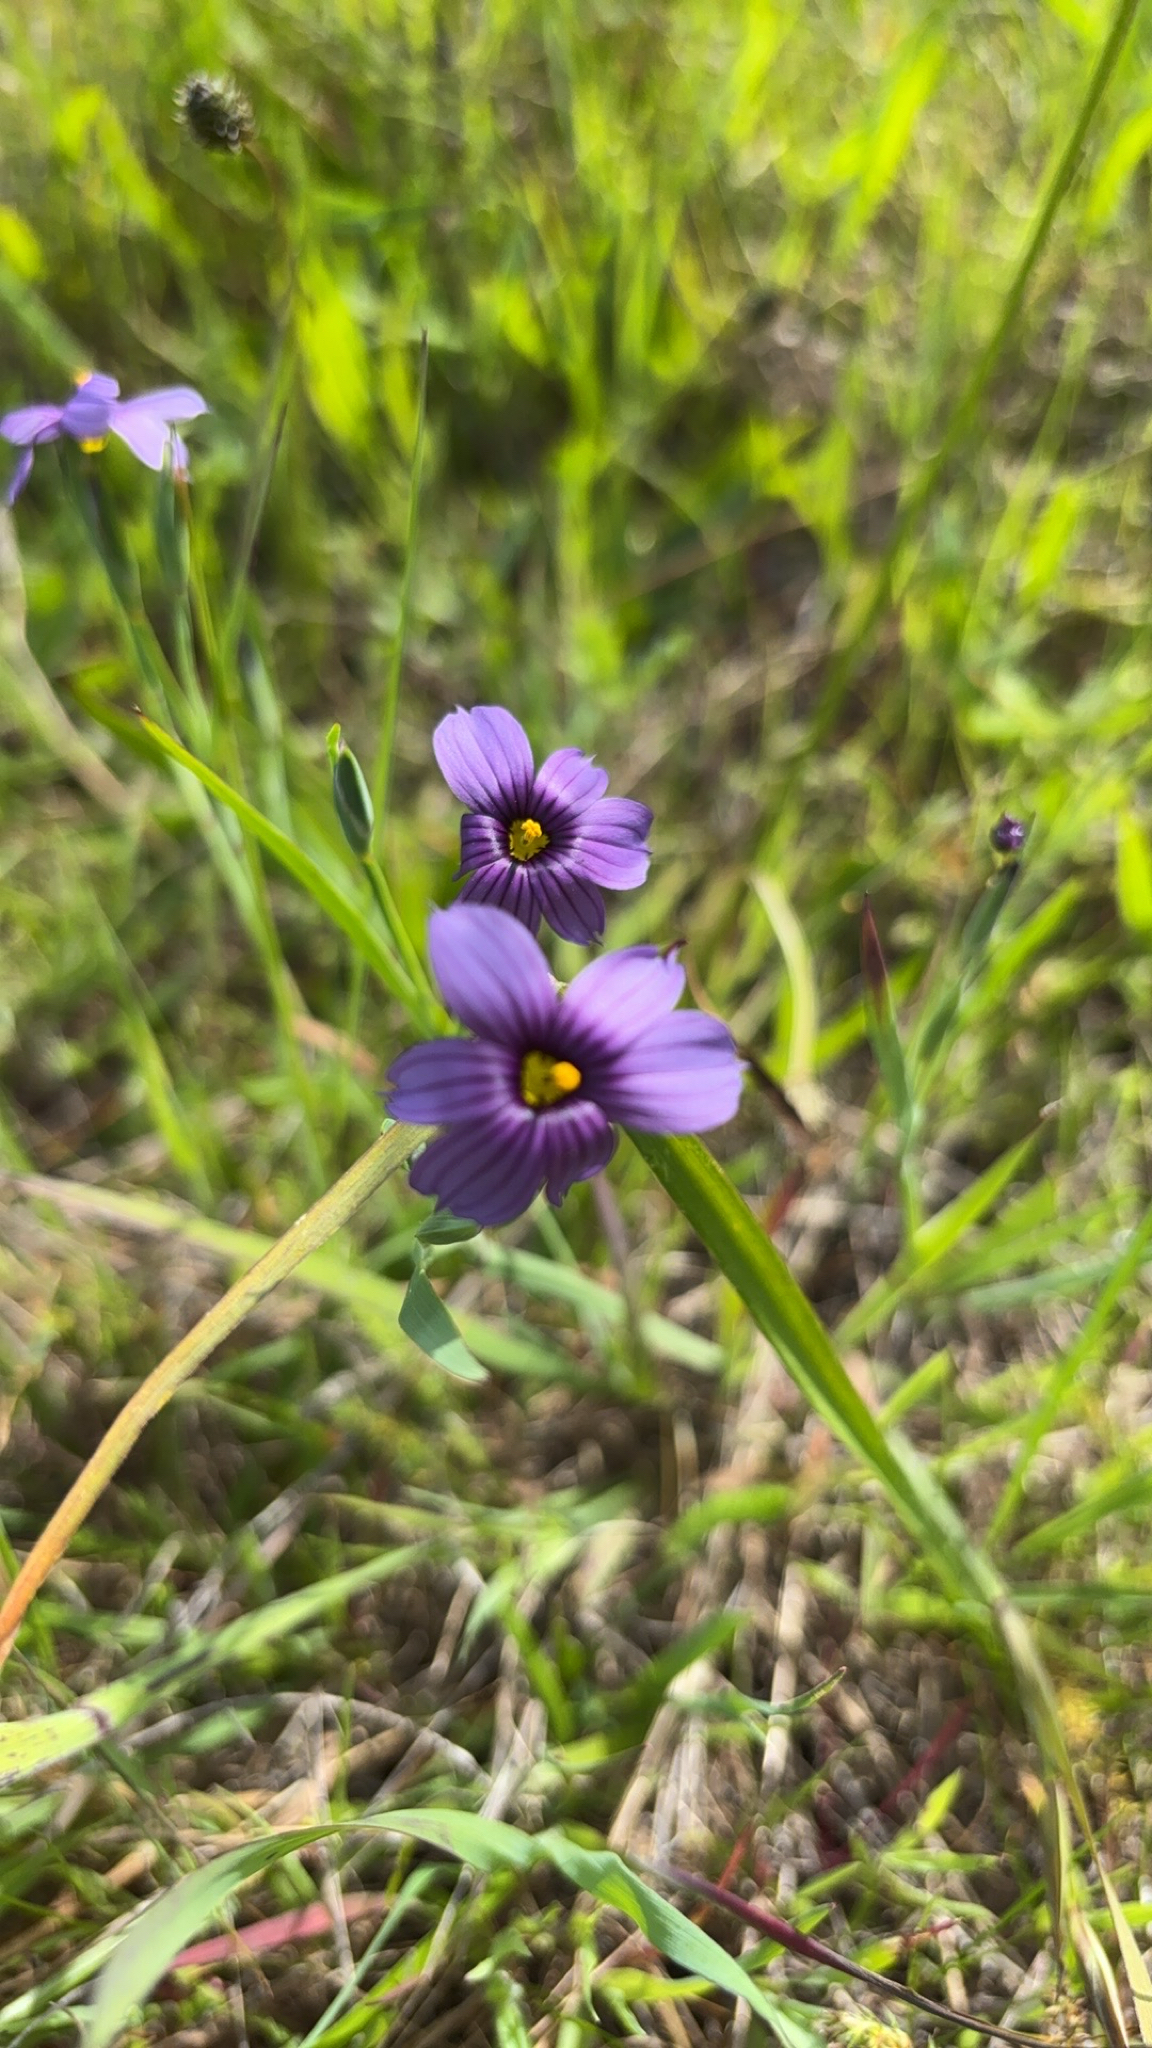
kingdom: Plantae
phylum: Tracheophyta
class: Liliopsida
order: Asparagales
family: Iridaceae
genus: Sisyrinchium
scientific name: Sisyrinchium bellum
